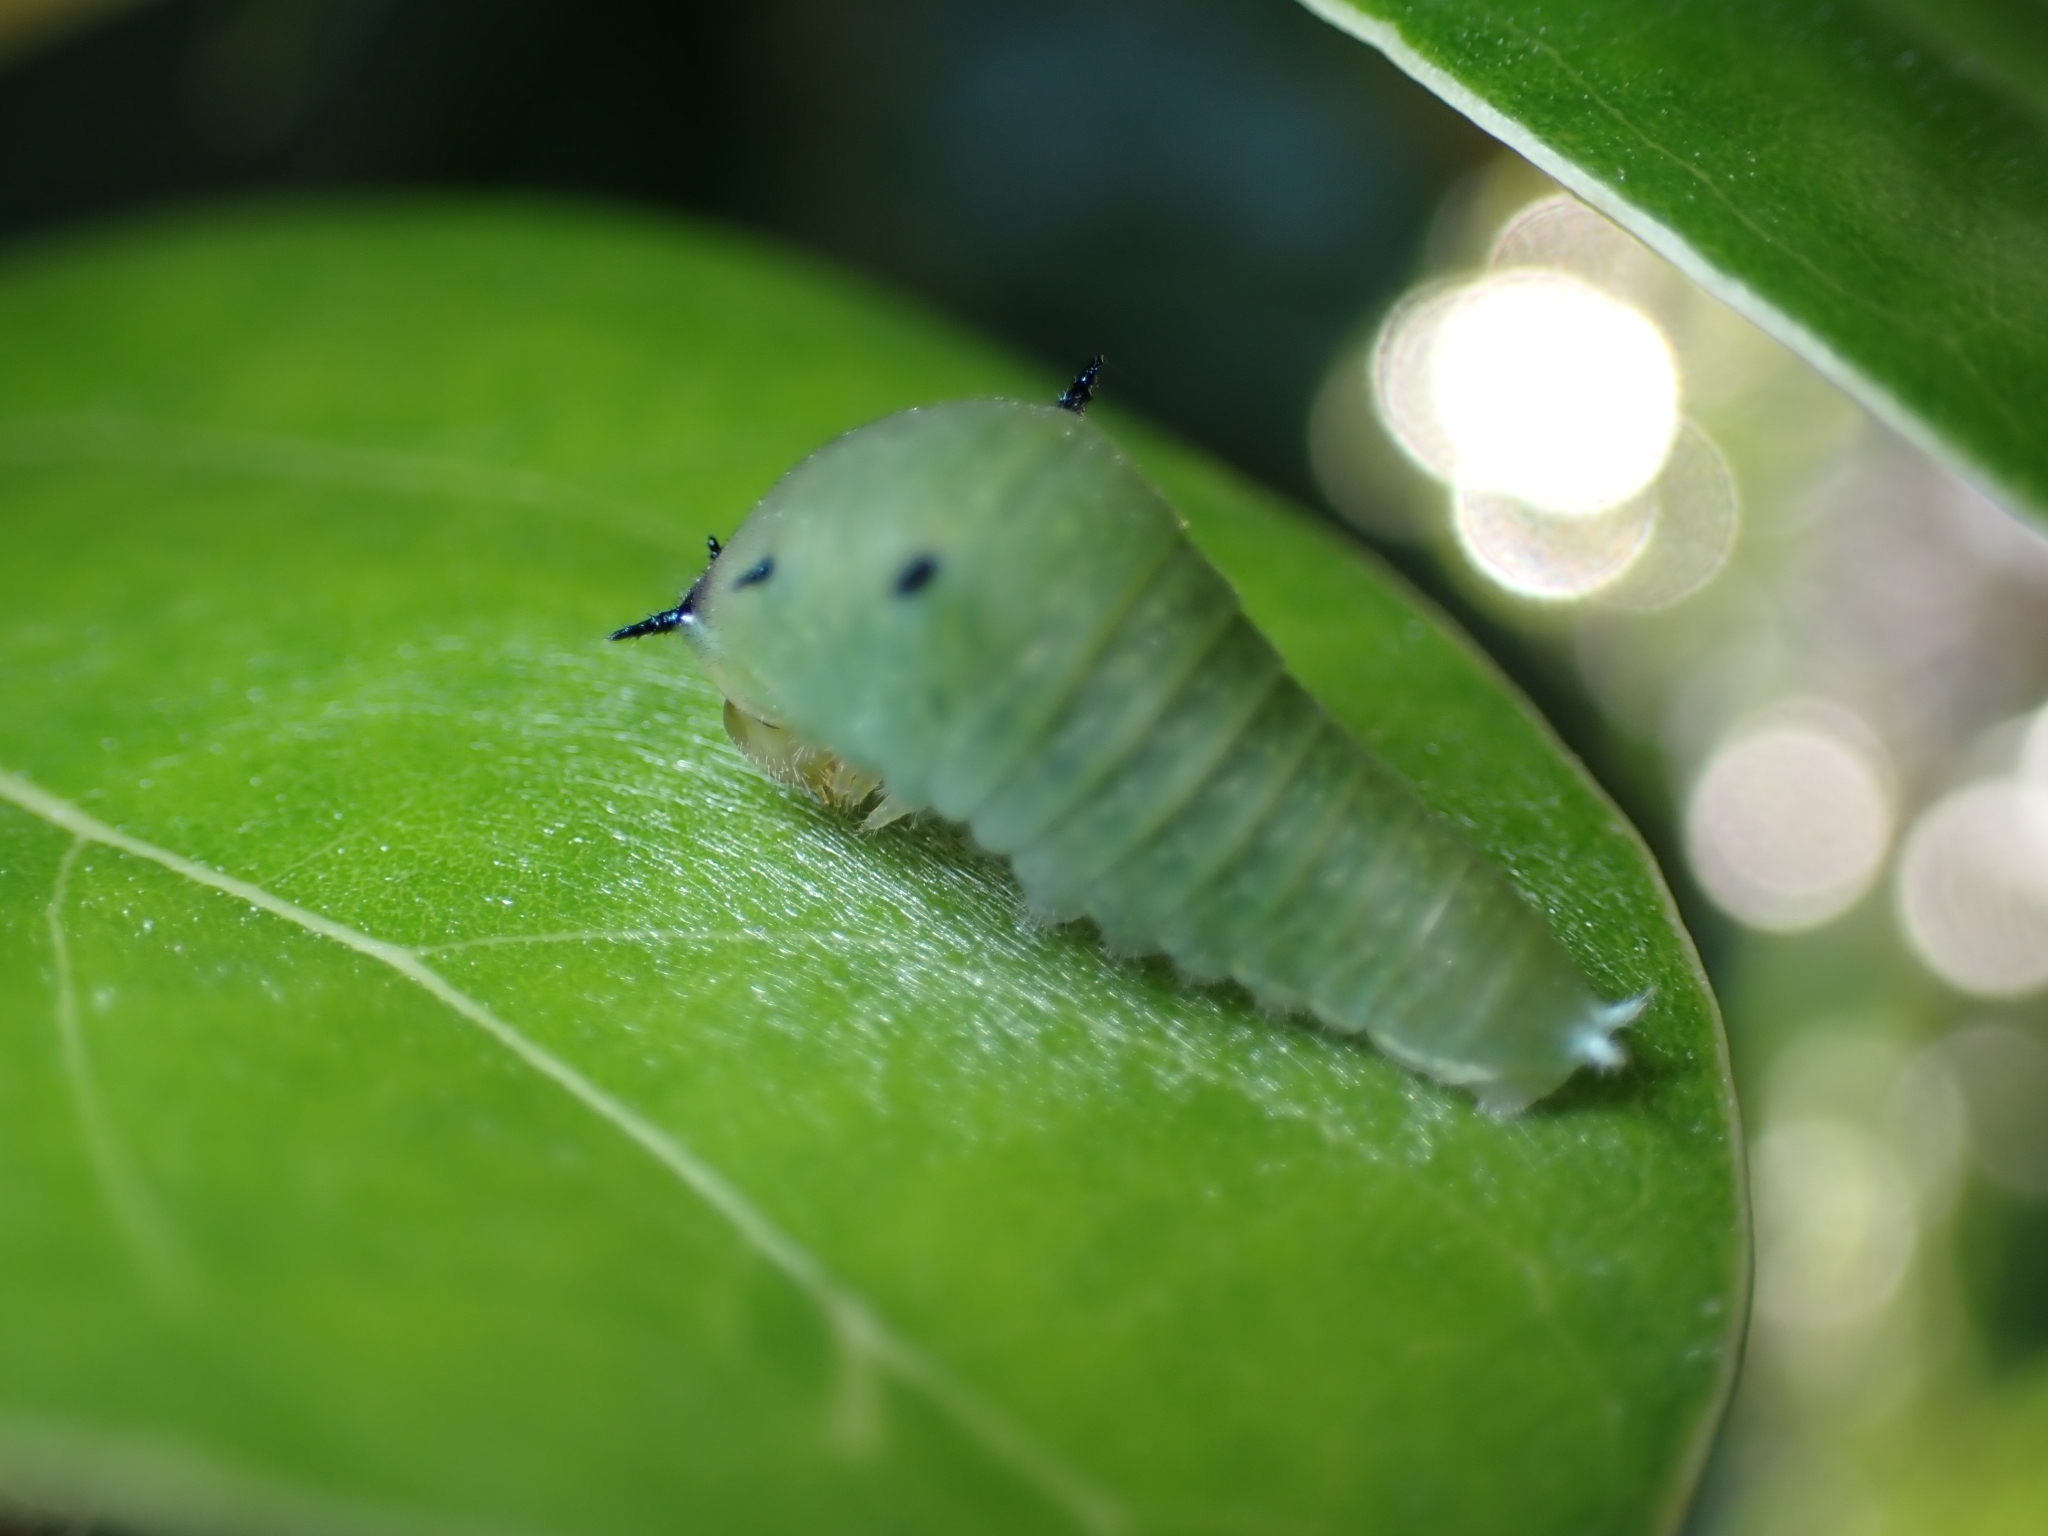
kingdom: Animalia
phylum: Arthropoda
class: Insecta
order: Lepidoptera
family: Papilionidae
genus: Graphium
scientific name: Graphium
